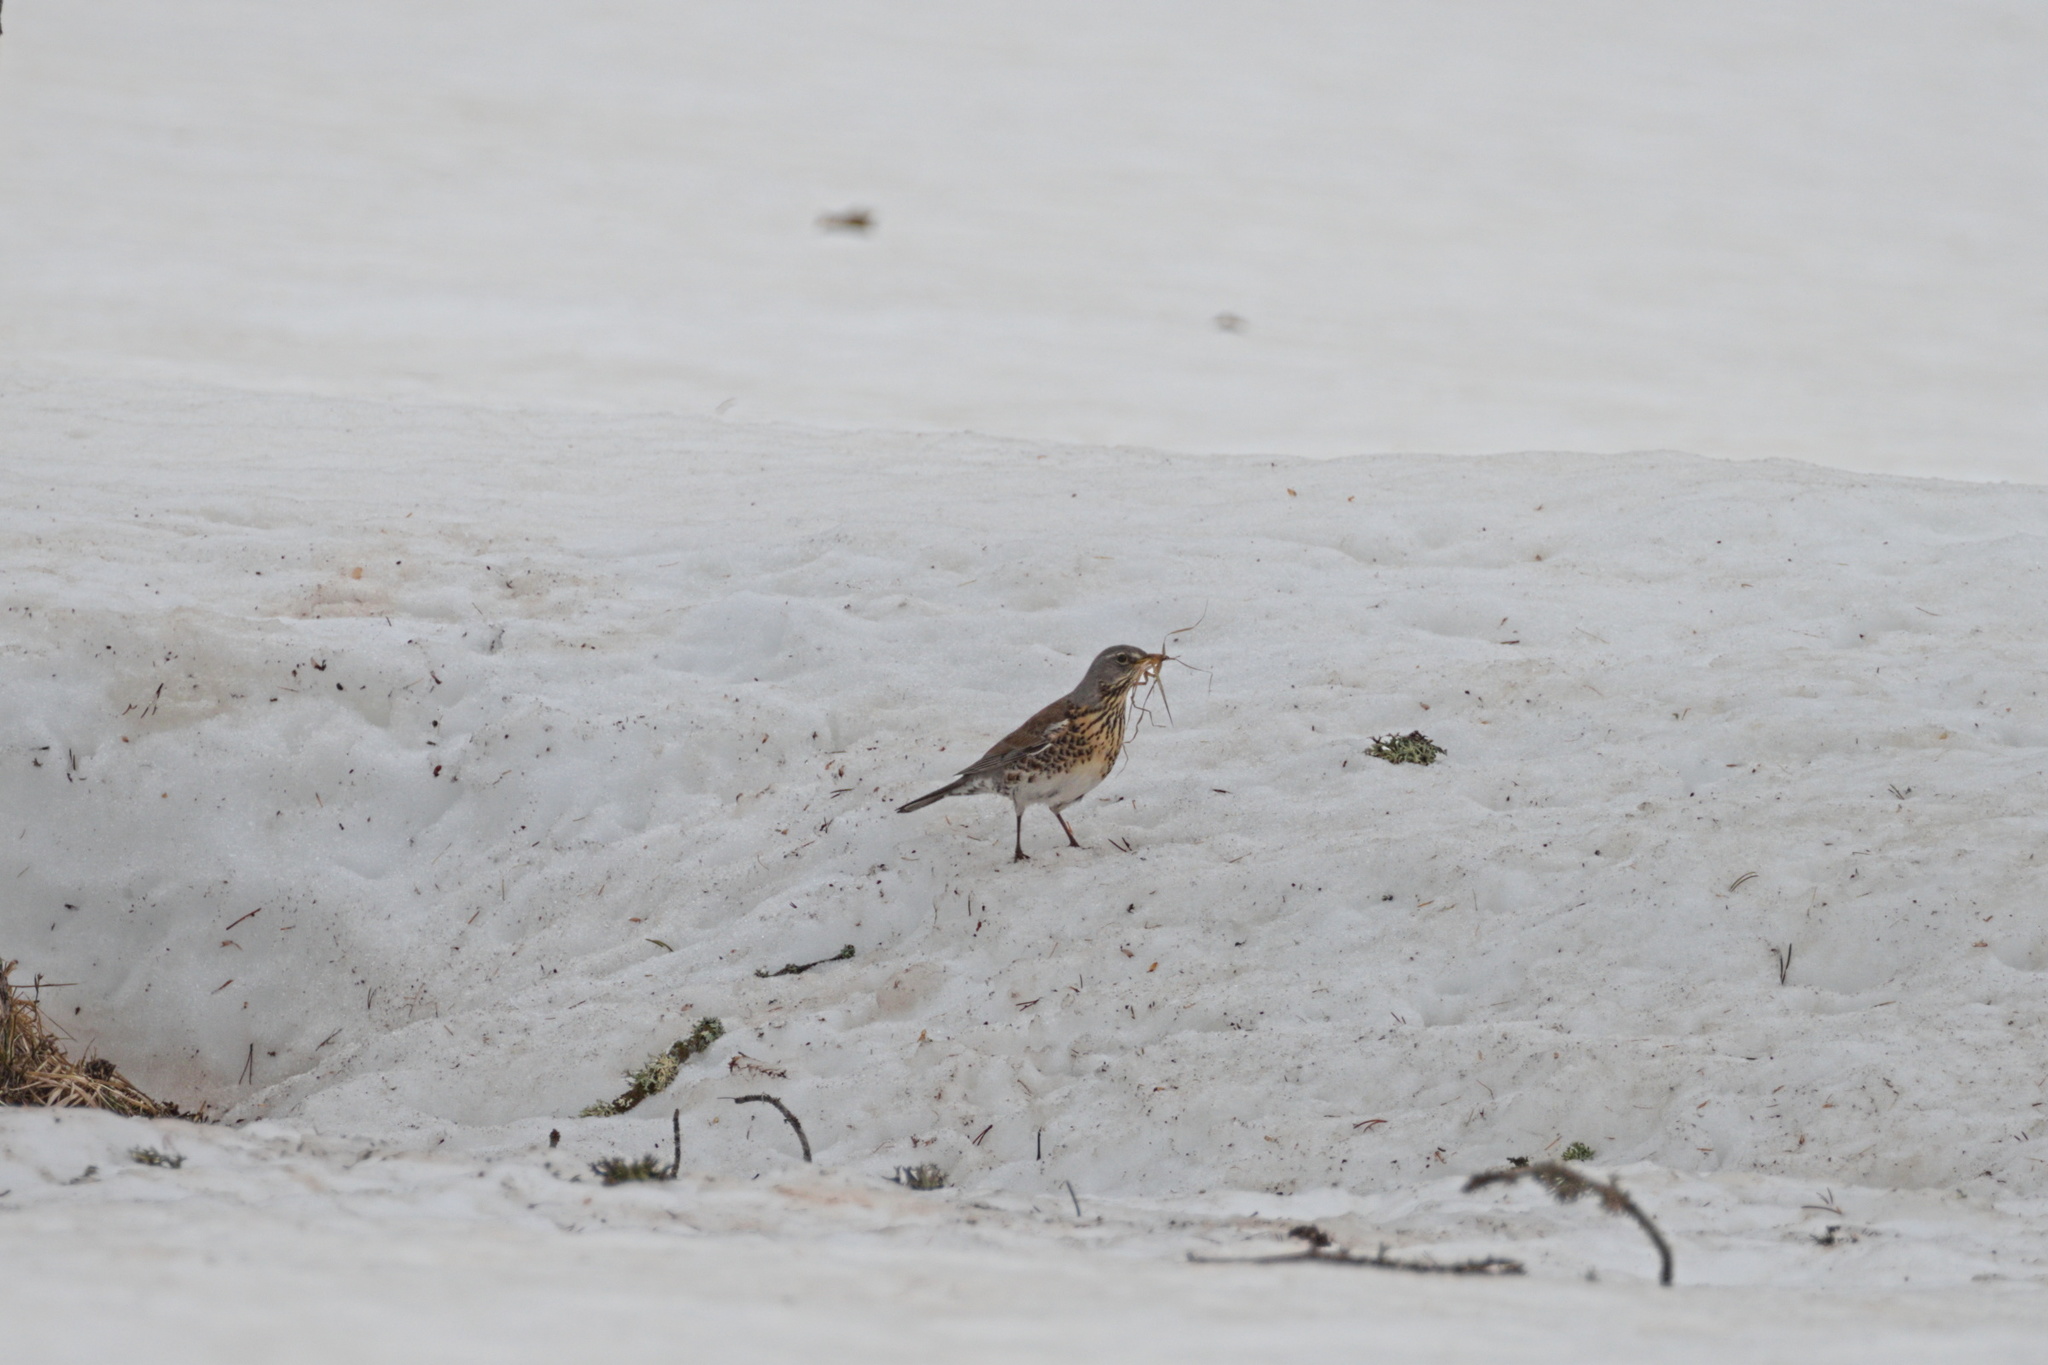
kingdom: Animalia
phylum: Chordata
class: Aves
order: Passeriformes
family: Turdidae
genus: Turdus
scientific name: Turdus pilaris
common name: Fieldfare
